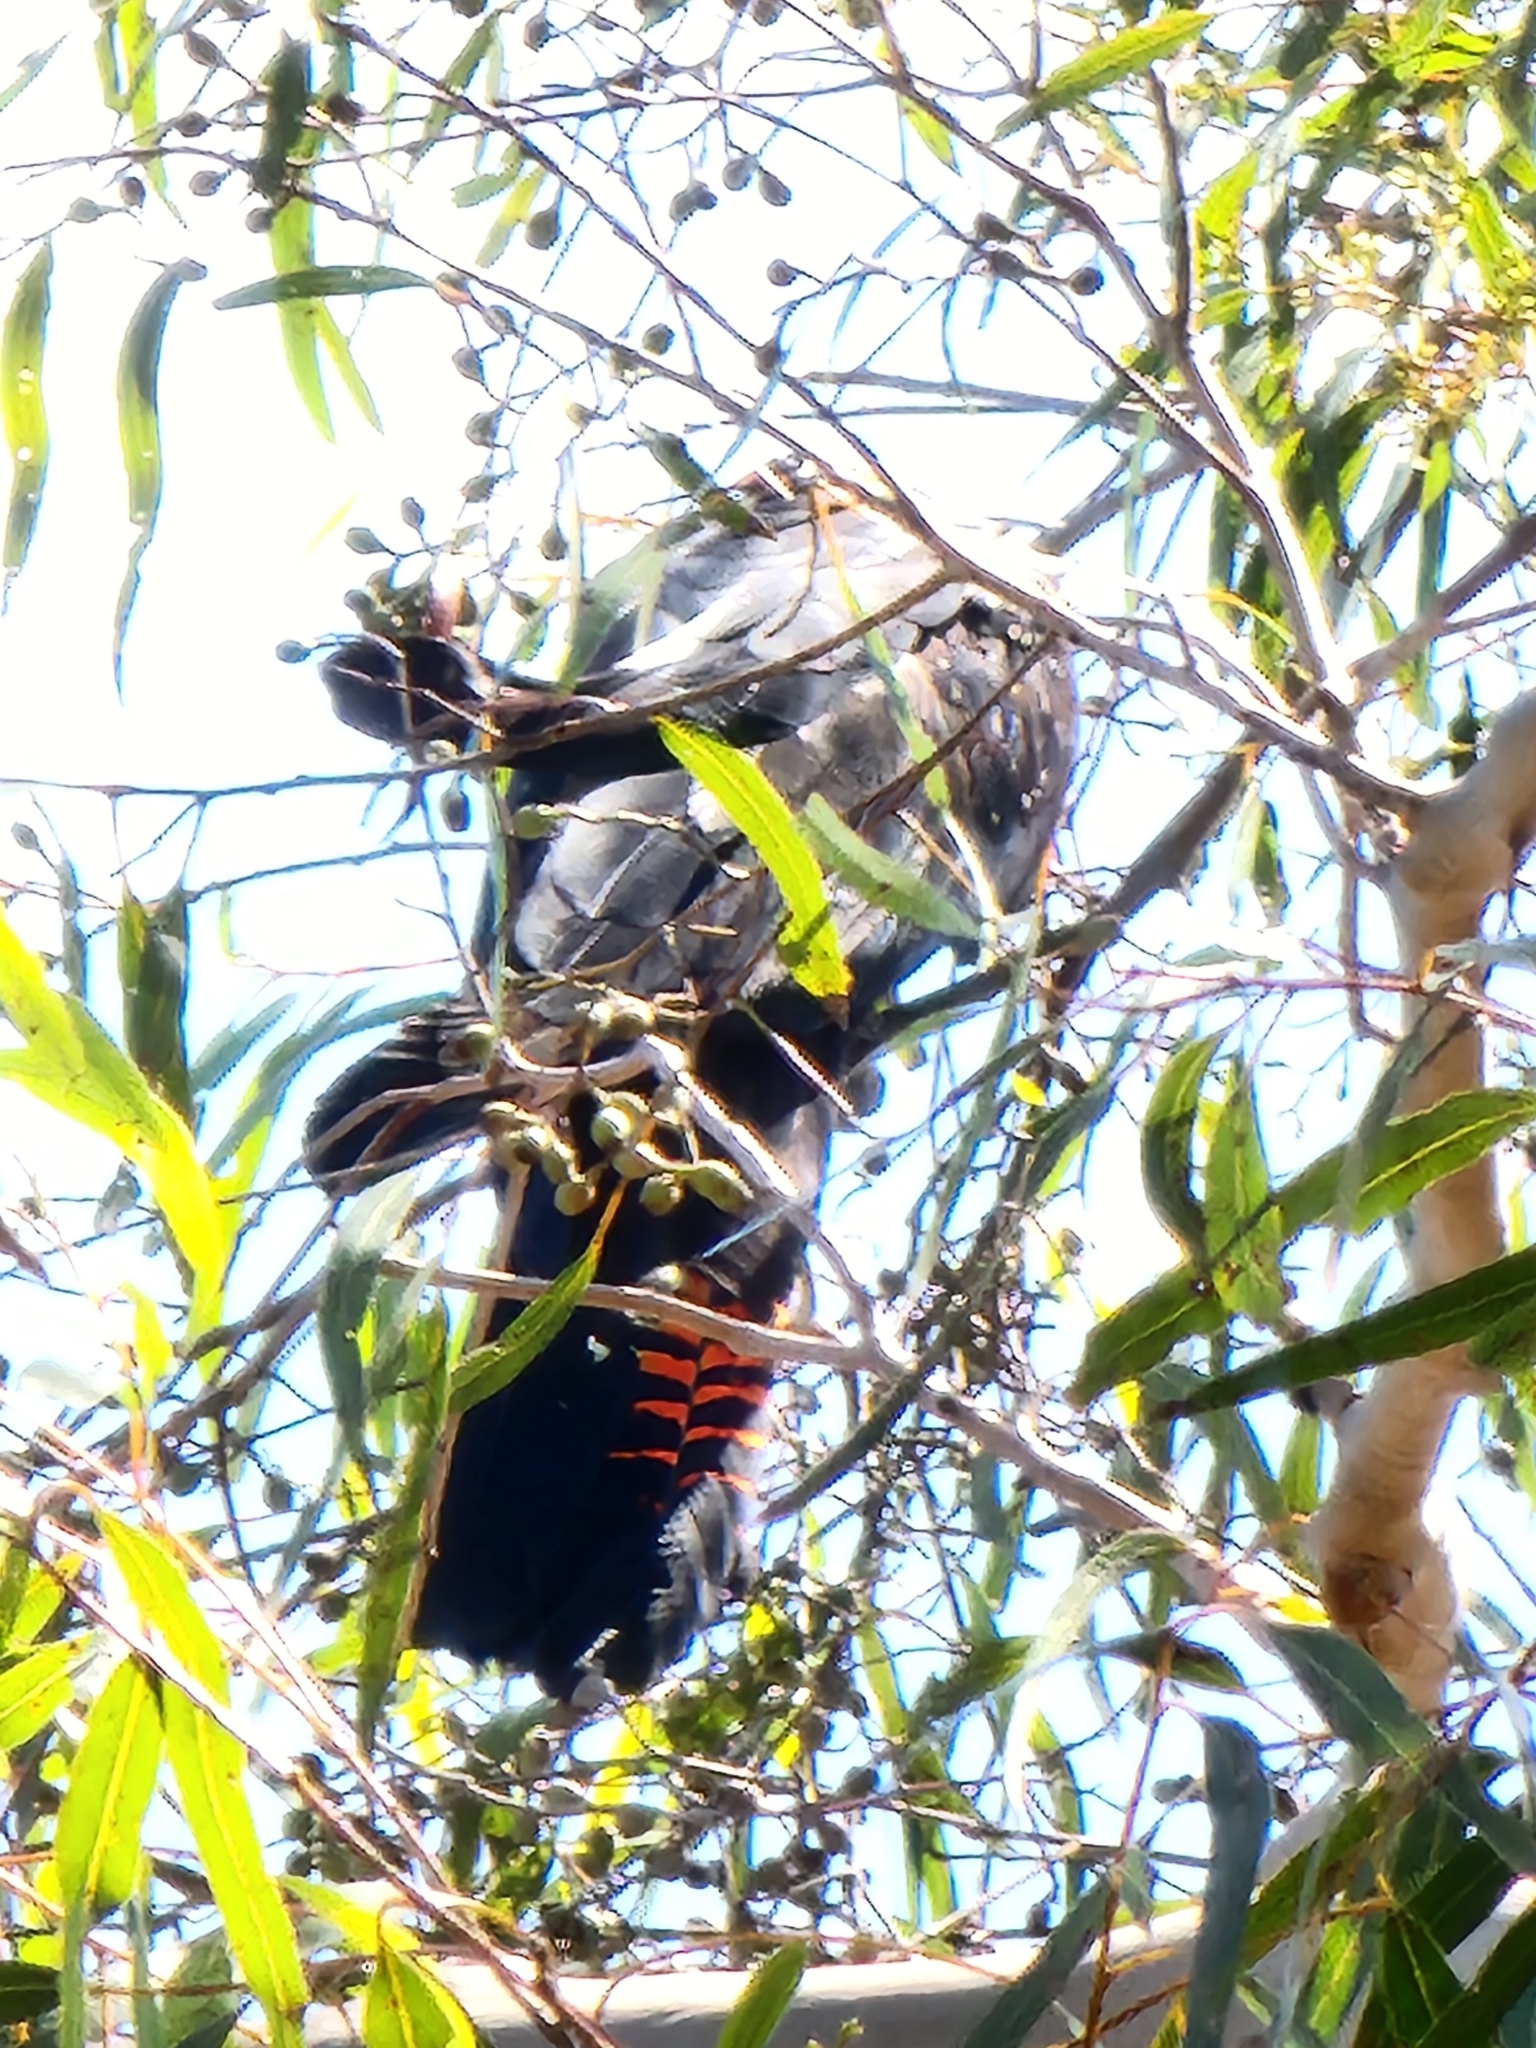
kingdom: Animalia
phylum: Chordata
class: Aves
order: Psittaciformes
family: Psittacidae
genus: Calyptorhynchus
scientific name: Calyptorhynchus banksii
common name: Red-tailed black cockatoo
